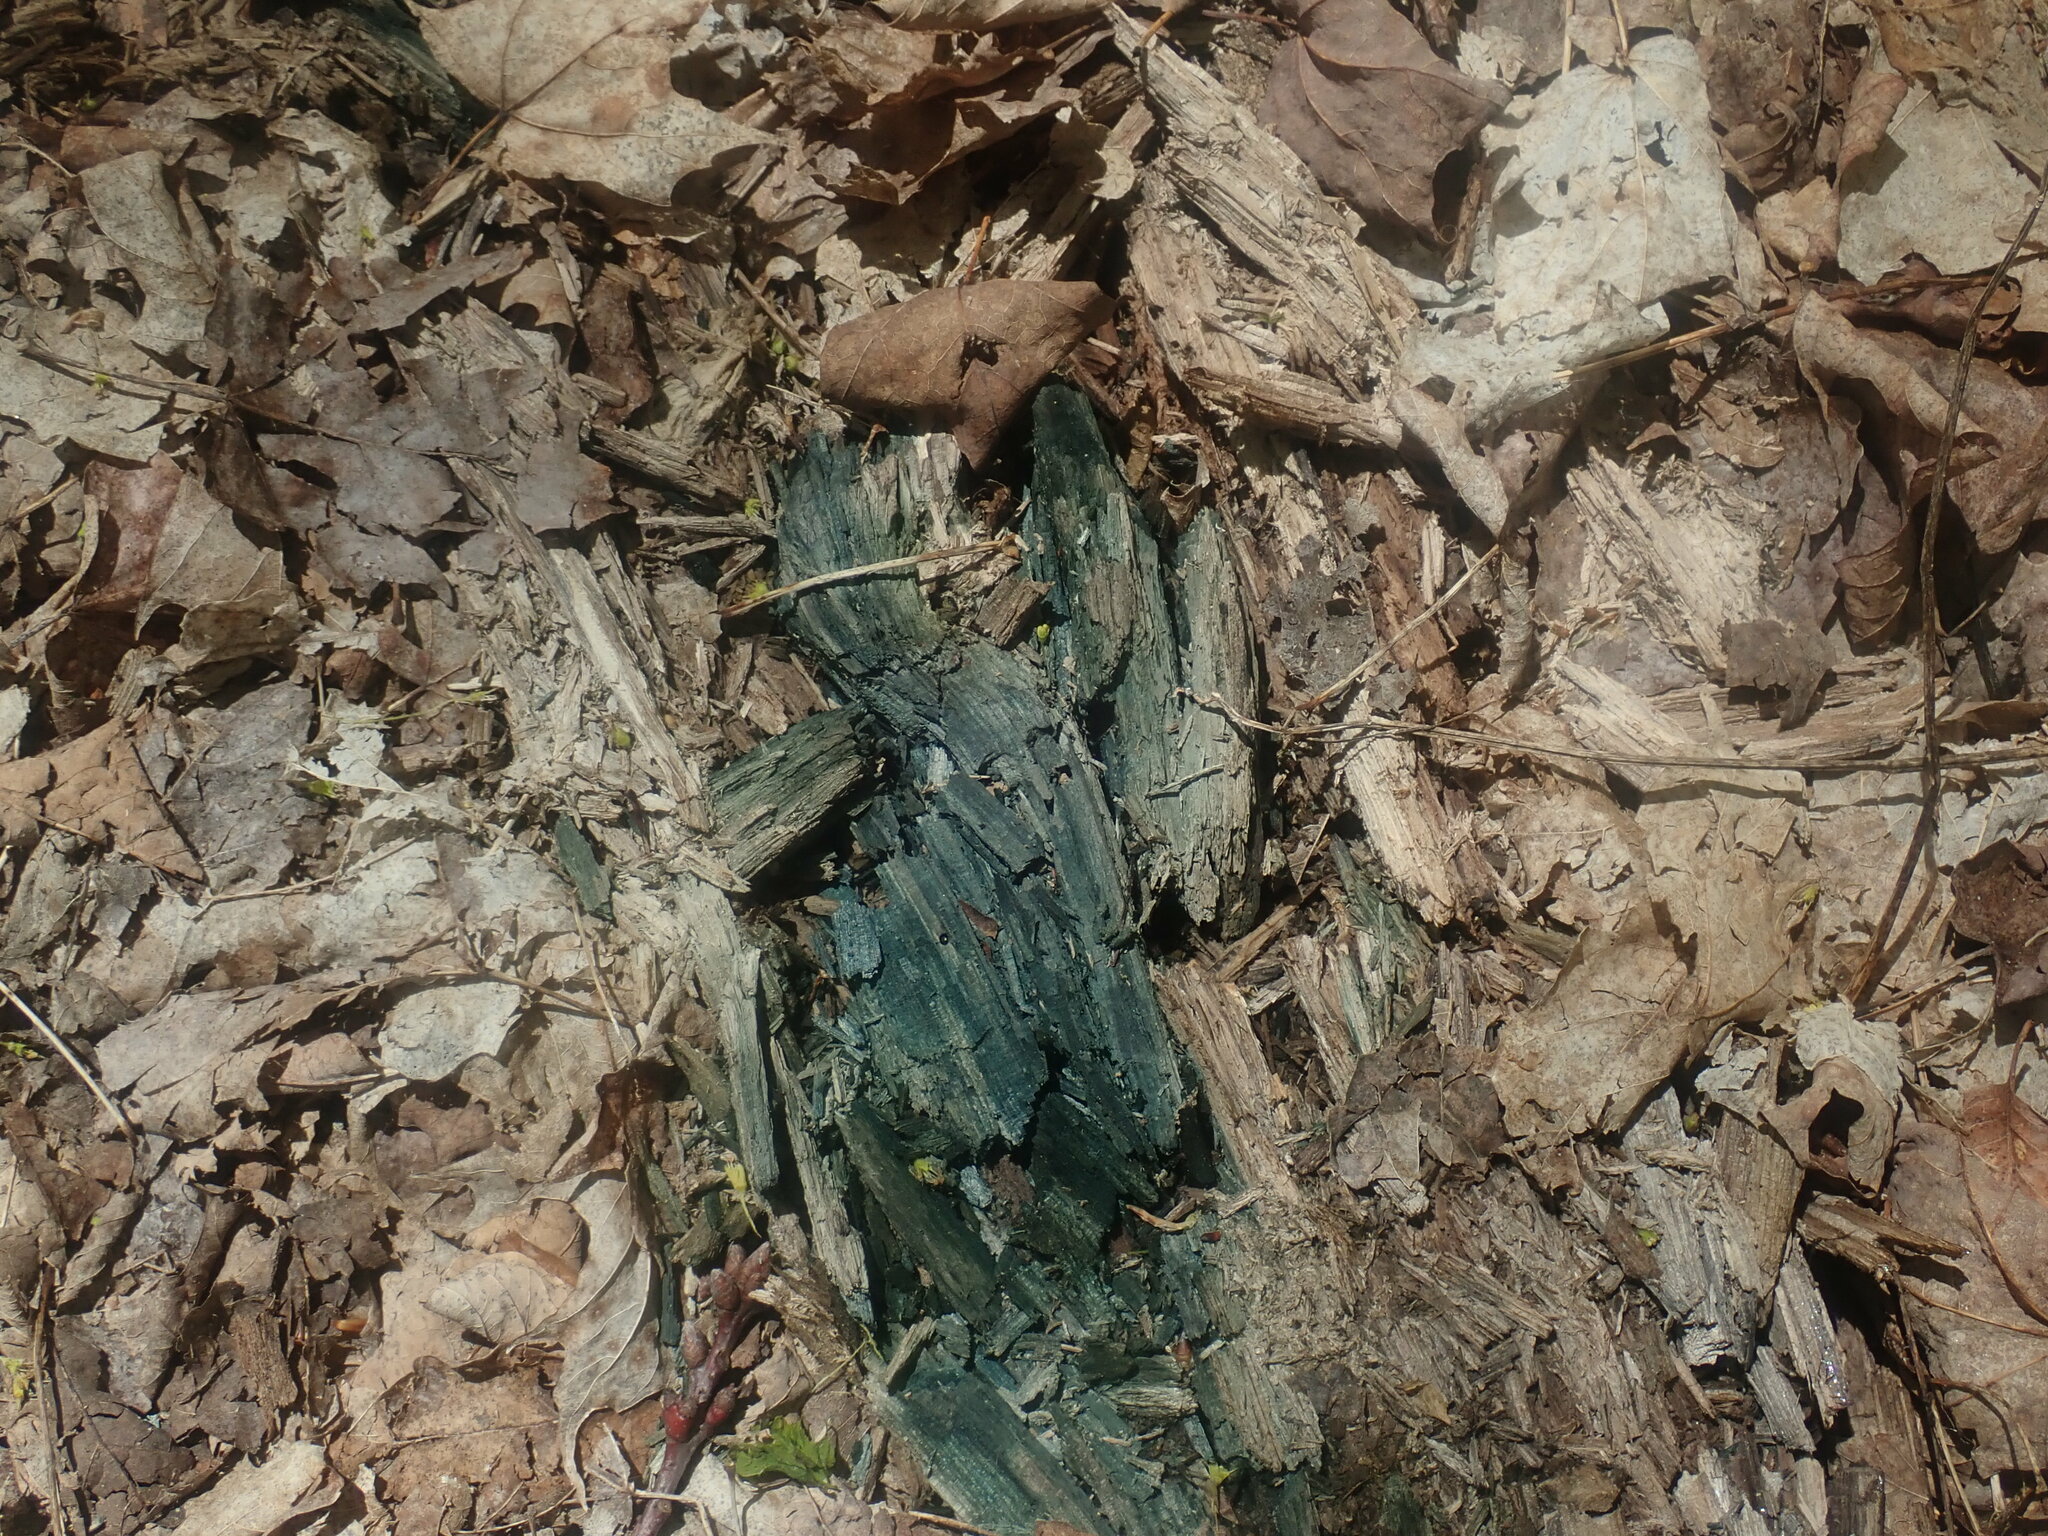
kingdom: Fungi
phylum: Ascomycota
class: Leotiomycetes
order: Helotiales
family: Chlorociboriaceae
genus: Chlorociboria
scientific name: Chlorociboria
